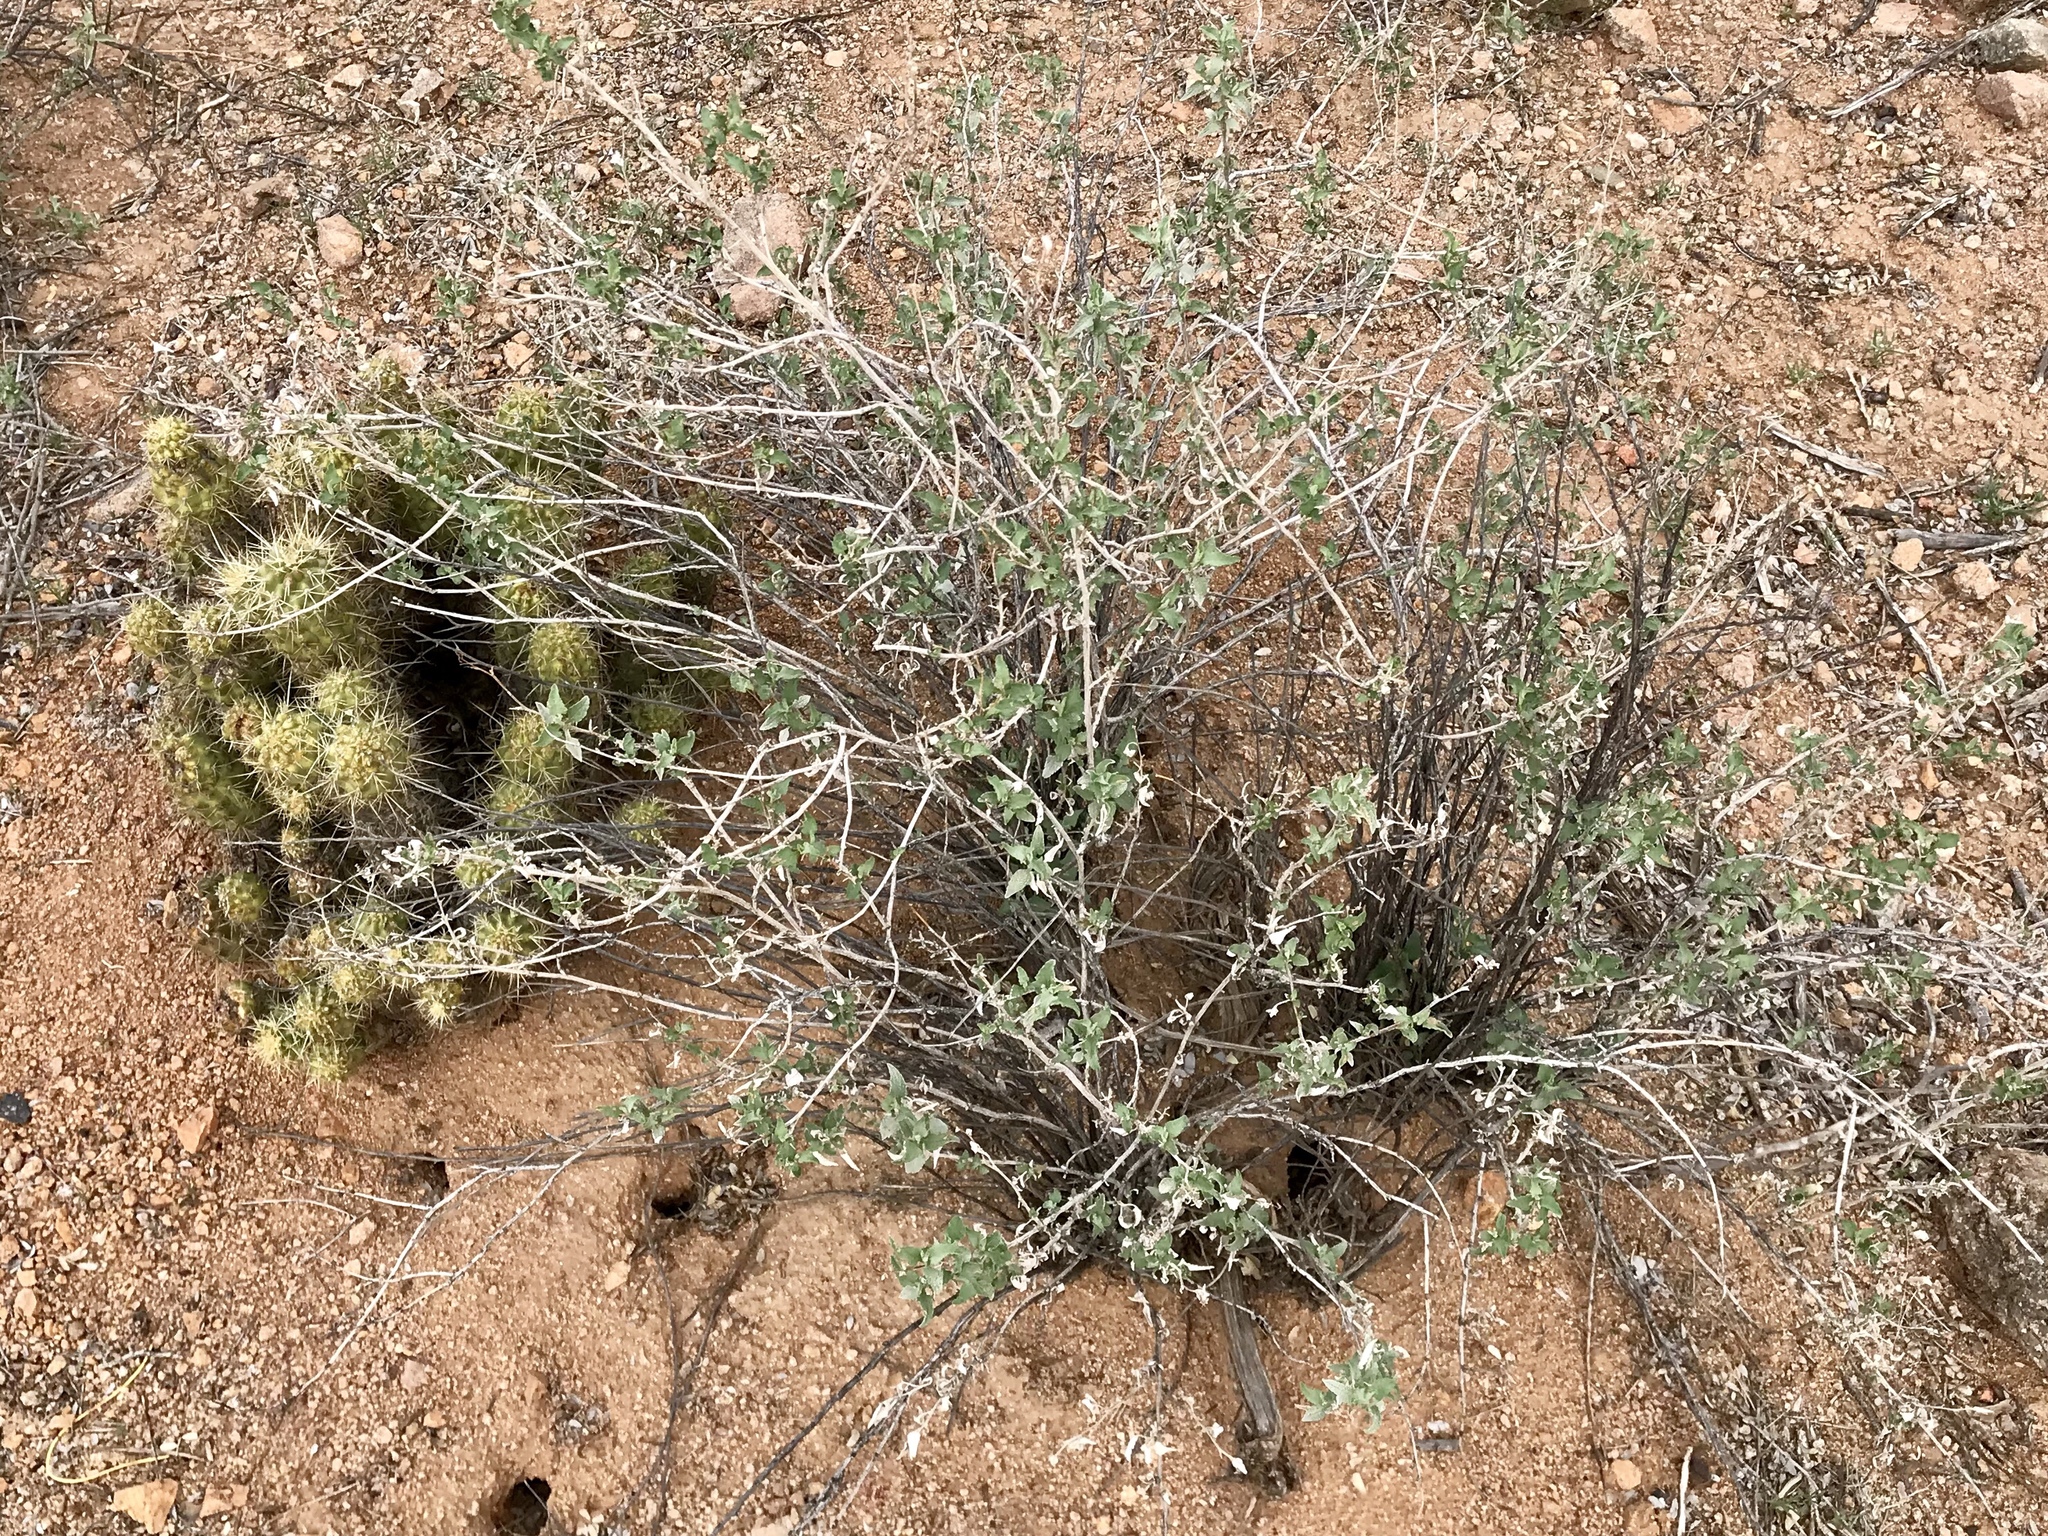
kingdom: Plantae
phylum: Tracheophyta
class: Magnoliopsida
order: Asterales
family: Asteraceae
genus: Ambrosia
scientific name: Ambrosia deltoidea
